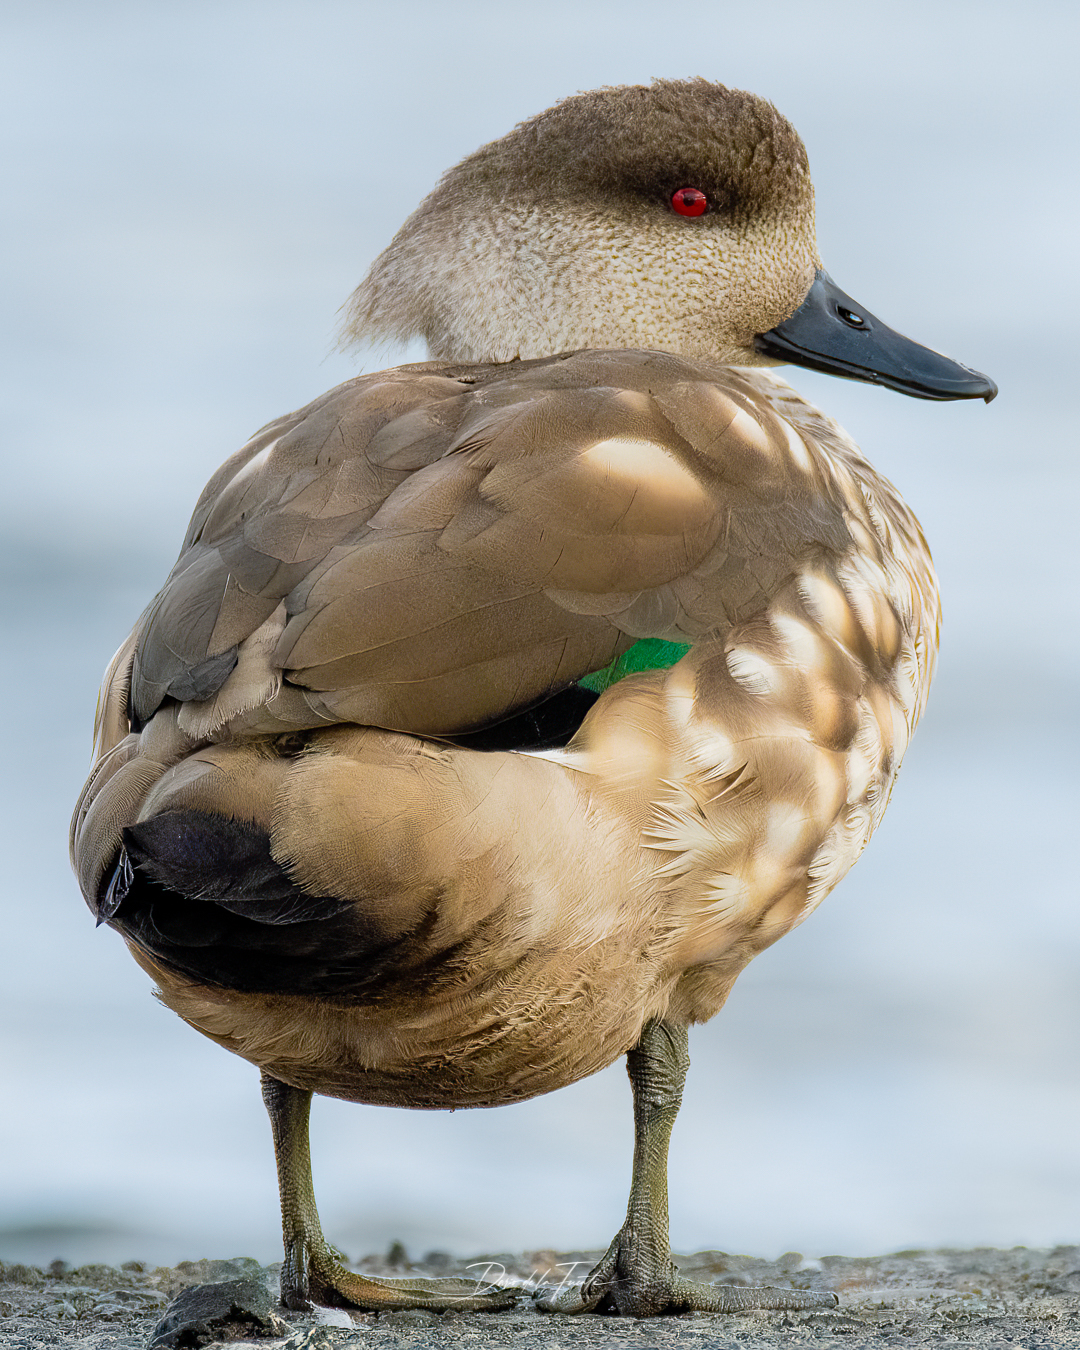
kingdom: Animalia
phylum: Chordata
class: Aves
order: Anseriformes
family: Anatidae
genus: Lophonetta
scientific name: Lophonetta specularioides
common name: Crested duck
